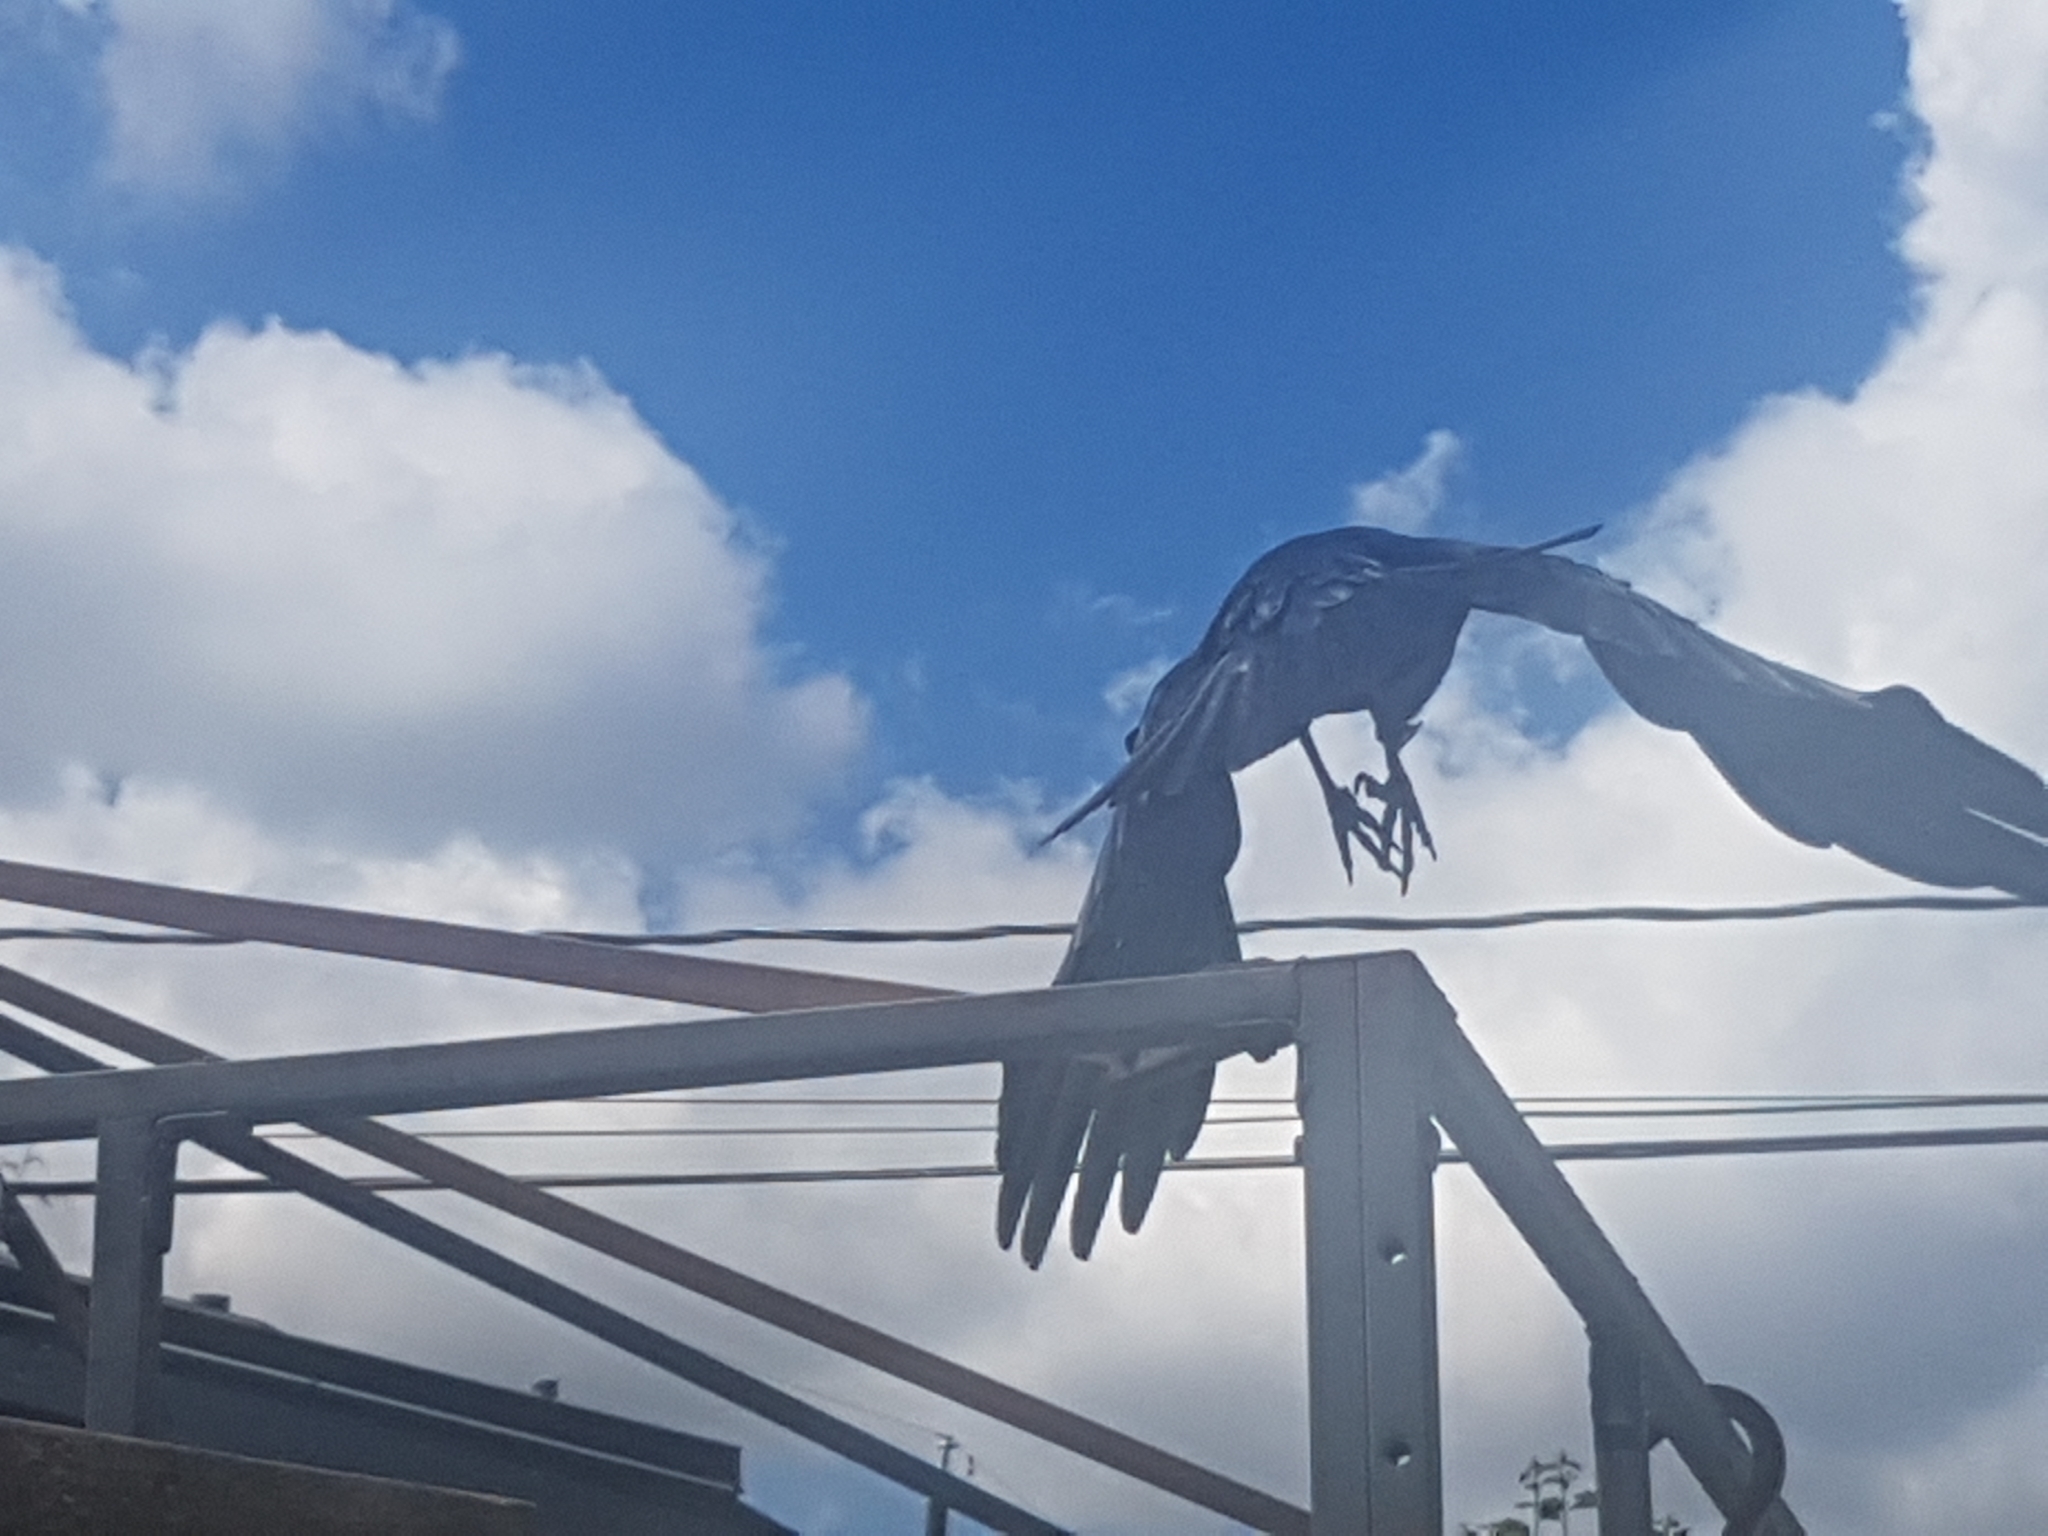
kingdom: Animalia
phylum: Chordata
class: Aves
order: Passeriformes
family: Corvidae
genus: Corvus
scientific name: Corvus brachyrhynchos
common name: American crow
